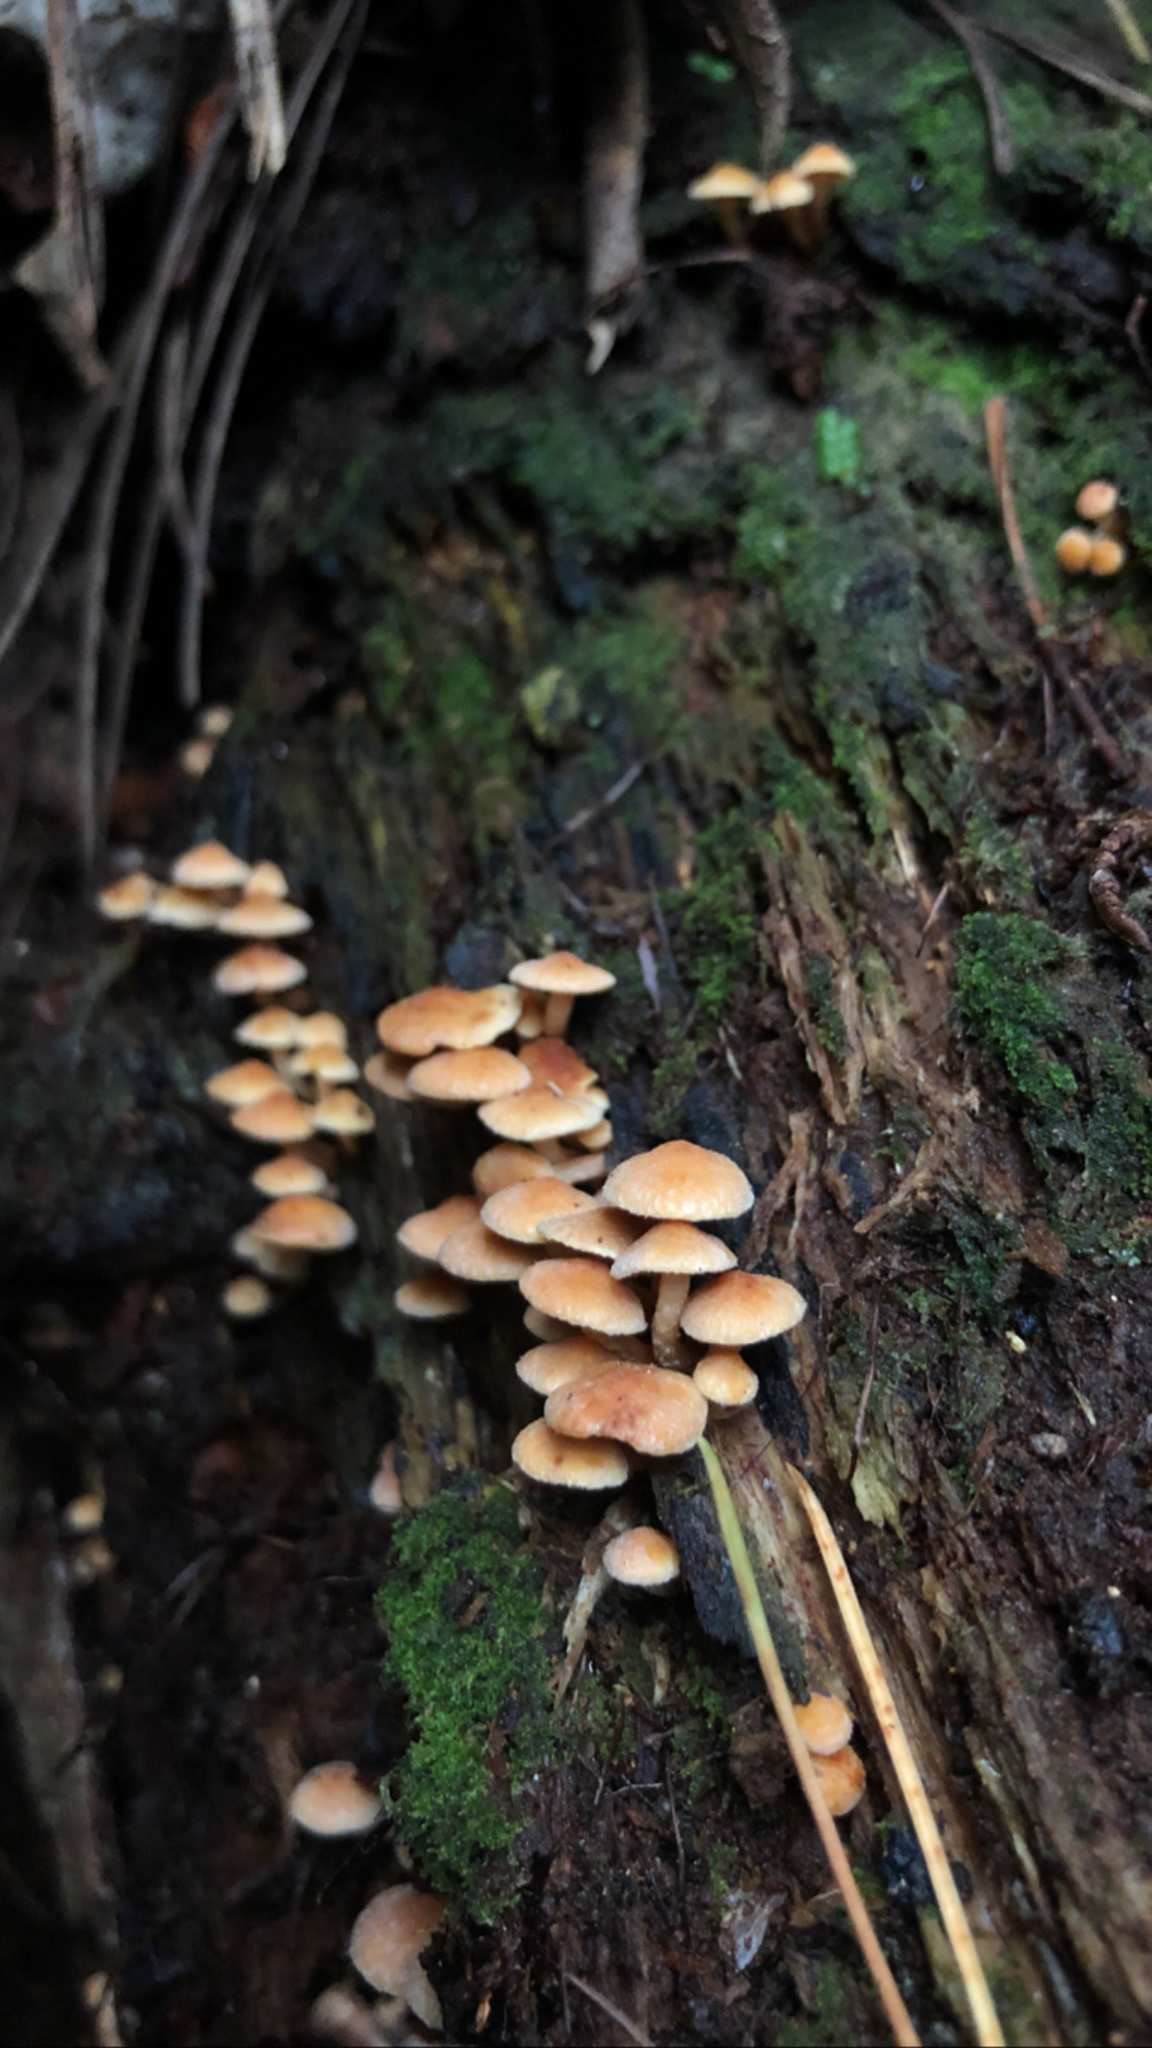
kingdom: Fungi
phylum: Basidiomycota
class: Agaricomycetes
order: Agaricales
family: Strophariaceae
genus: Hypholoma
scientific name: Hypholoma acutum
